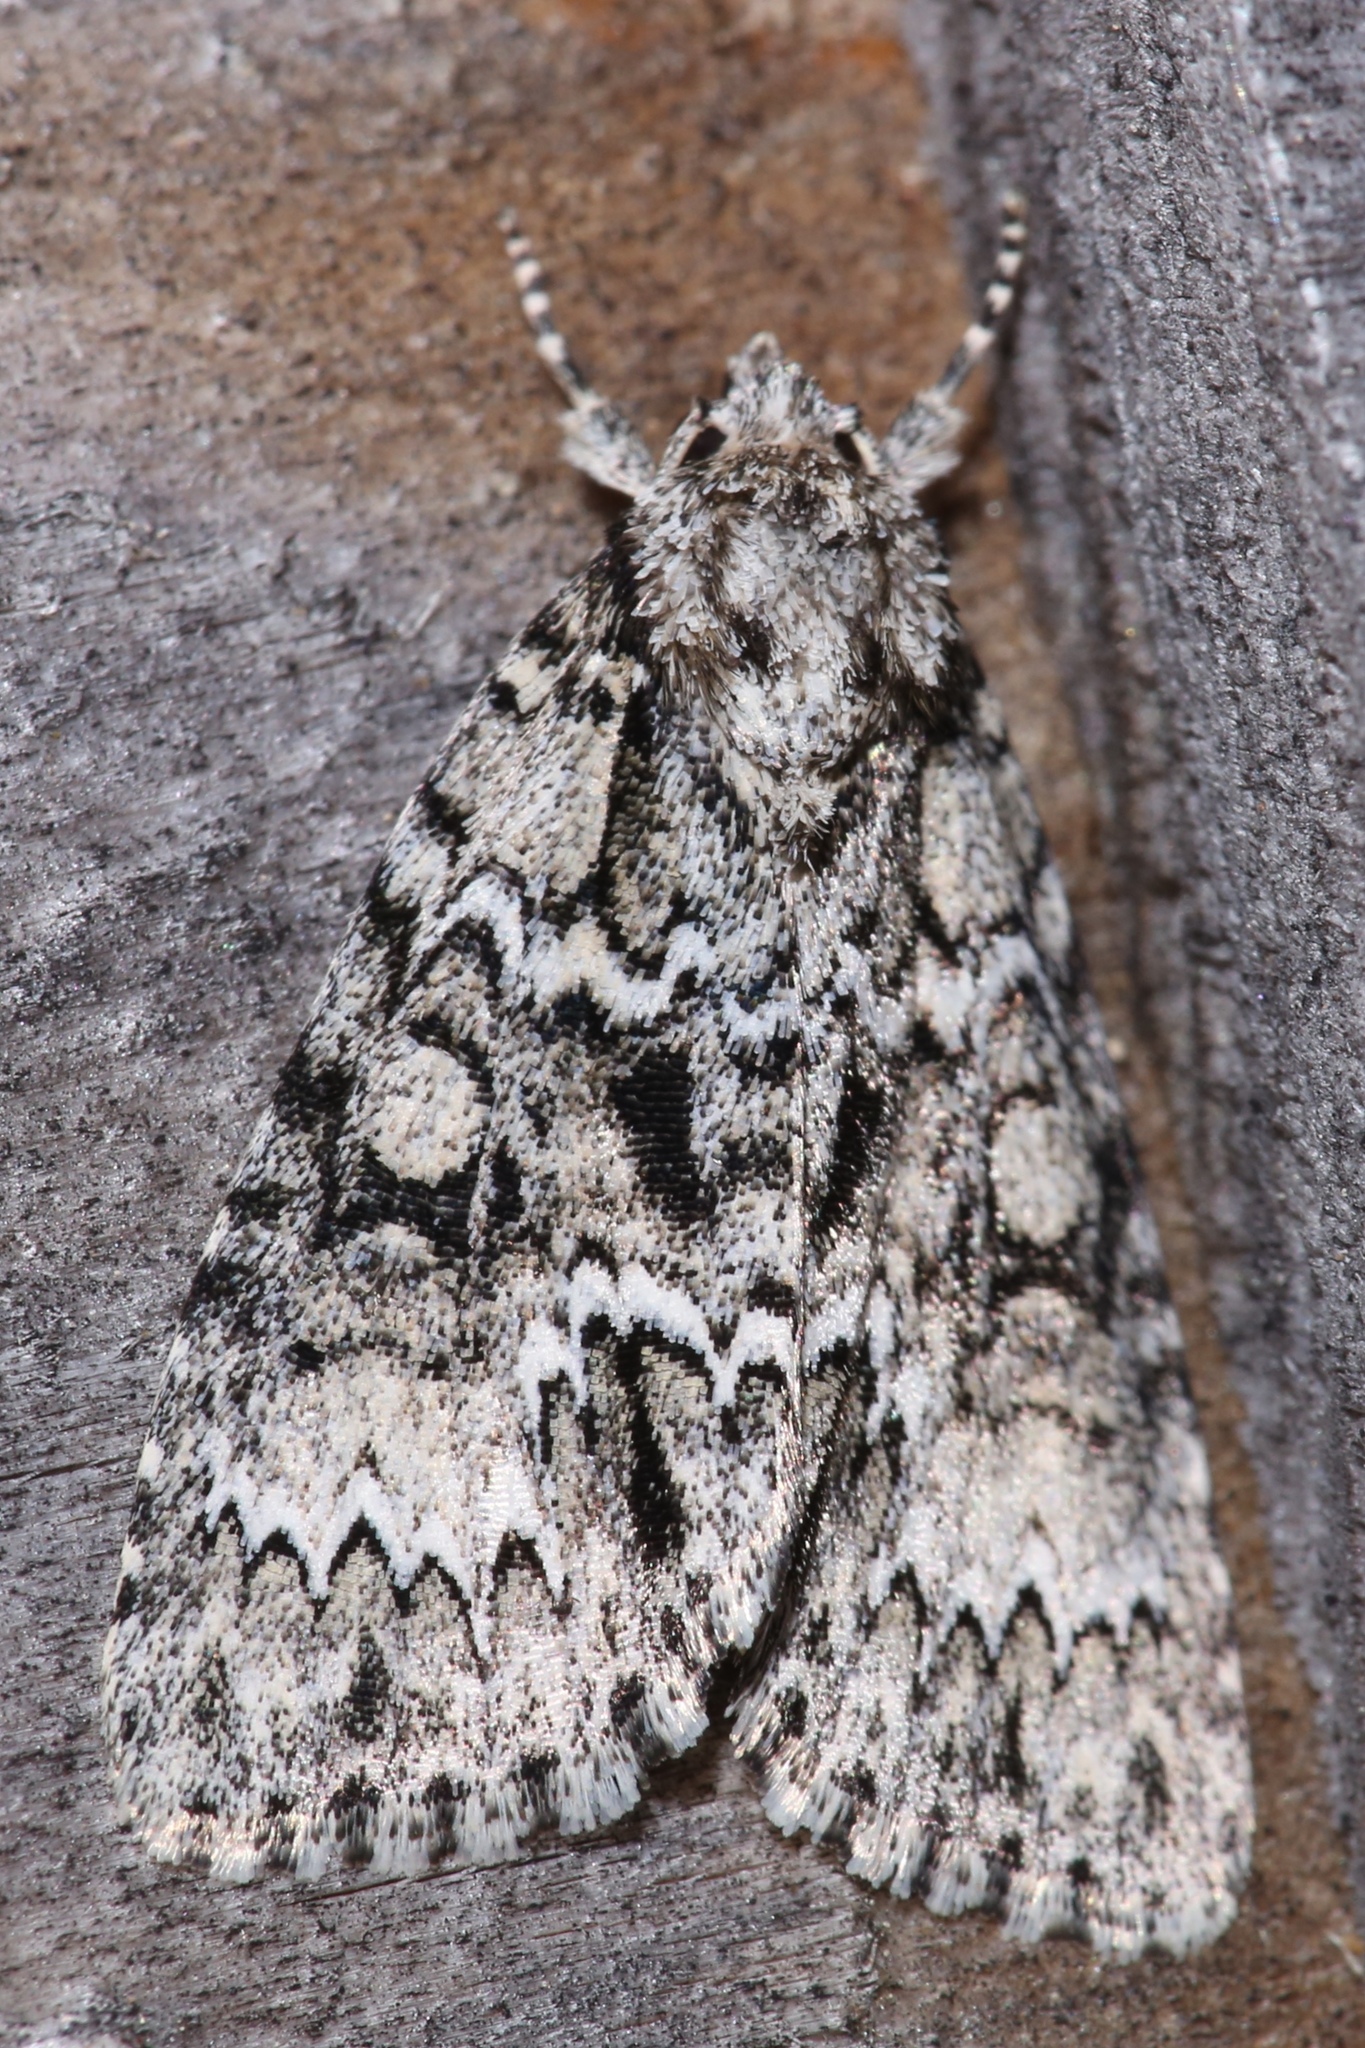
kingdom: Animalia
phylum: Arthropoda
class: Insecta
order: Lepidoptera
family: Noctuidae
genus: Acronicta
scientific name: Acronicta noctivaga
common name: Night-wandering dagger
